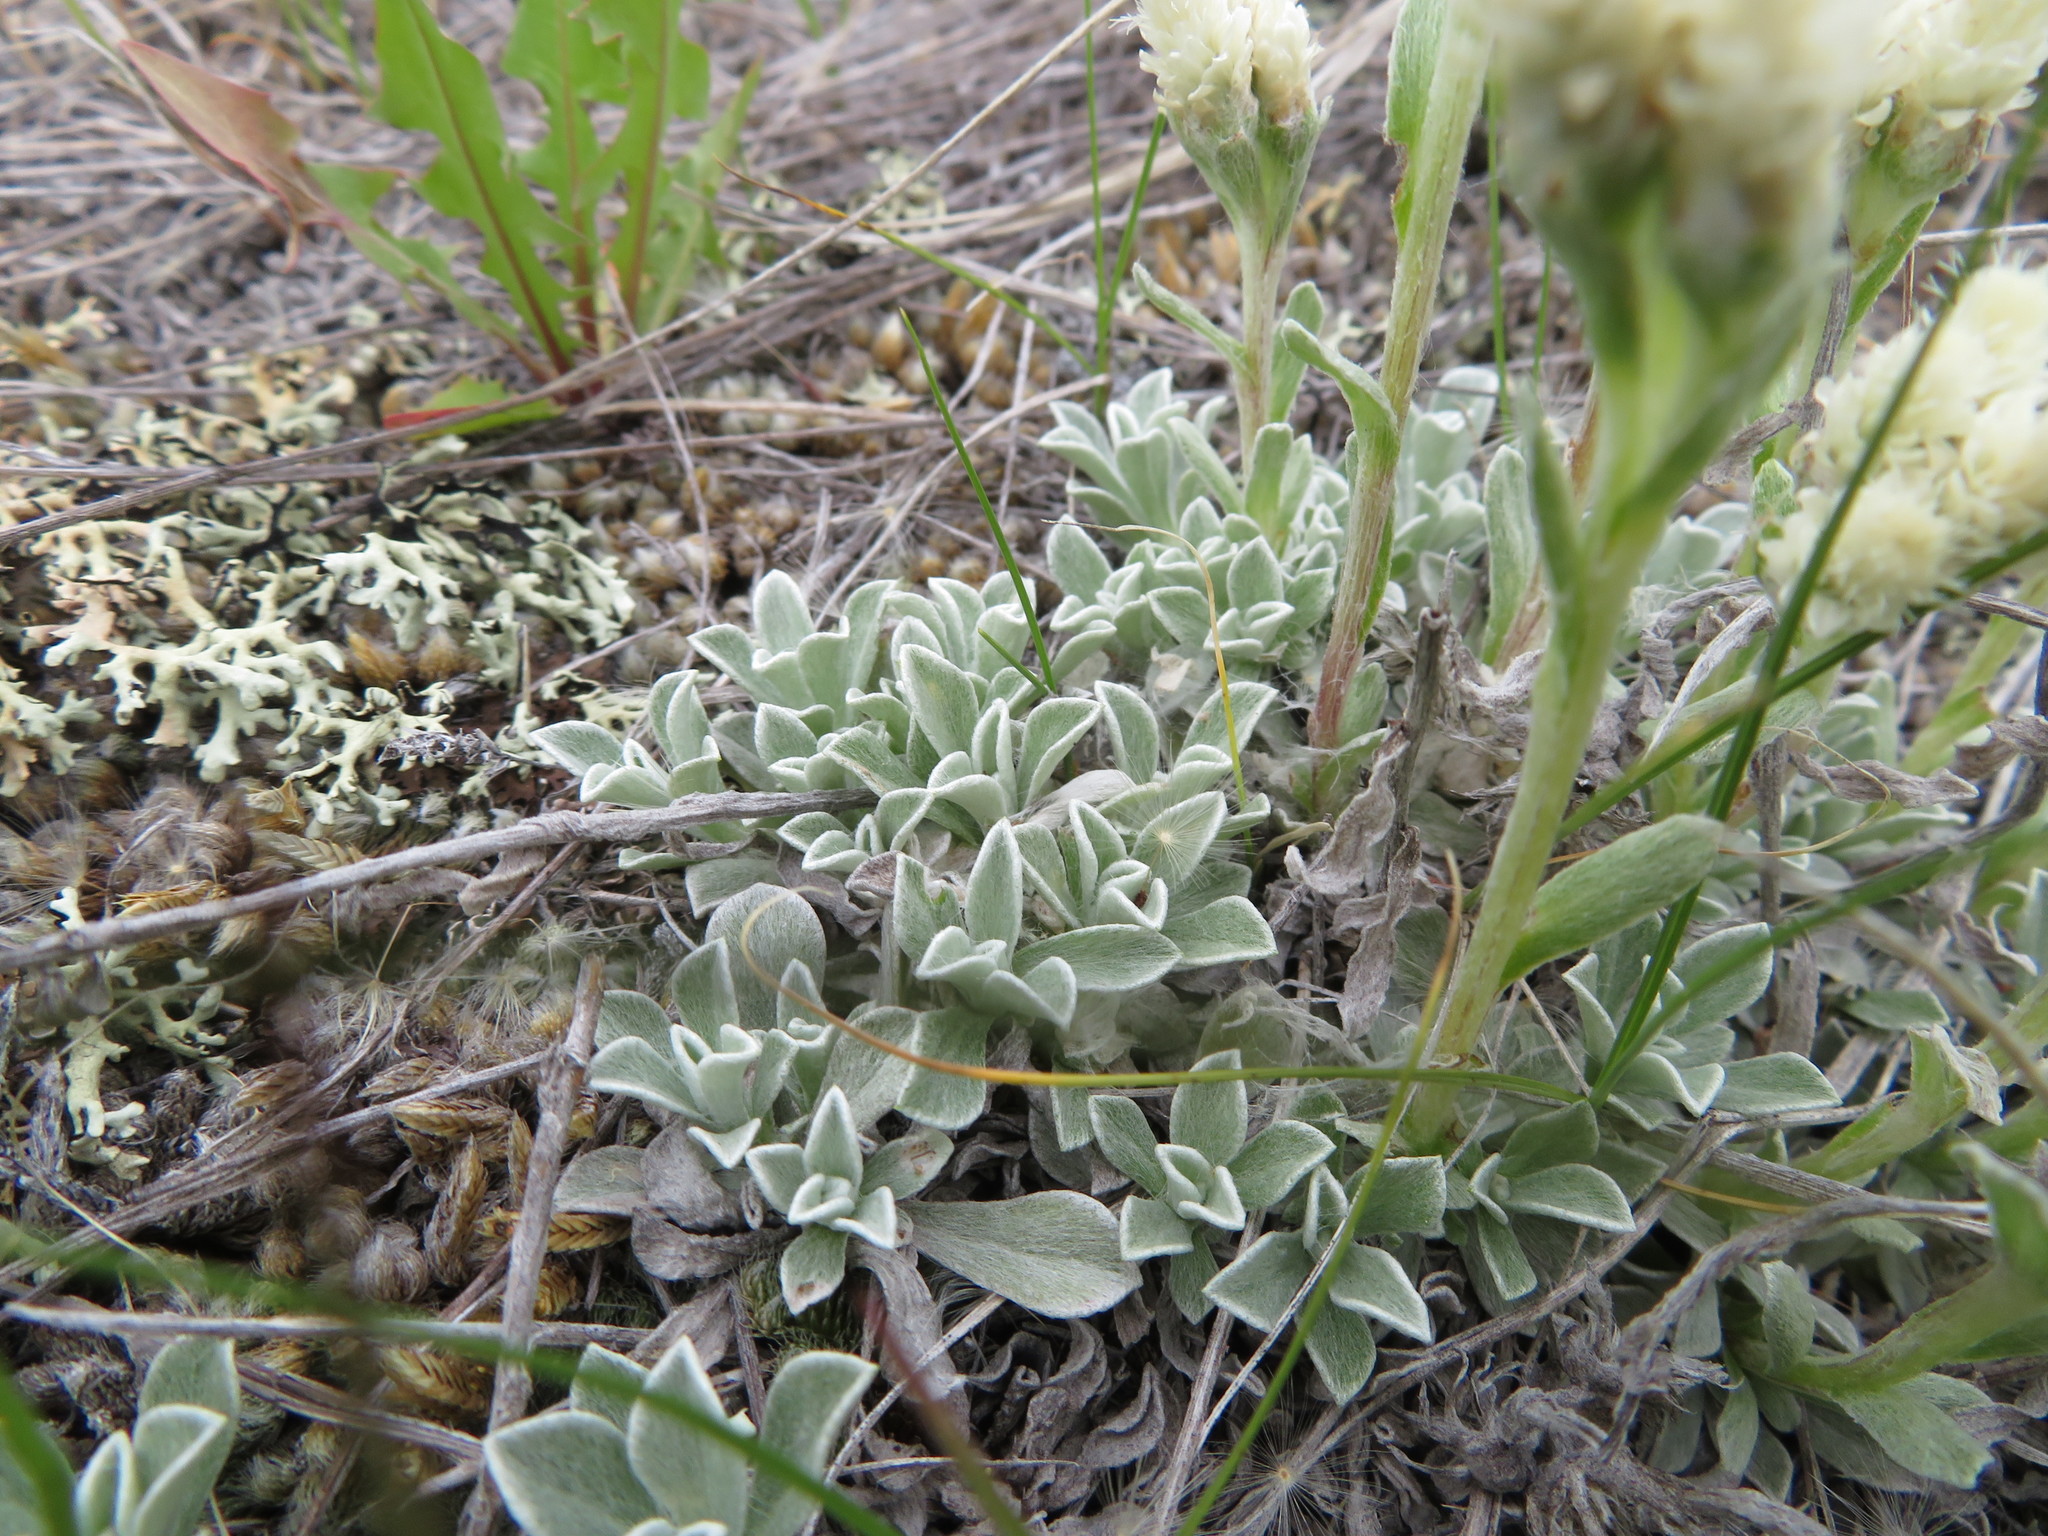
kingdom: Plantae
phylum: Tracheophyta
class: Magnoliopsida
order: Asterales
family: Asteraceae
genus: Antennaria
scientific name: Antennaria parvifolia
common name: Nuttall's pussytoes
